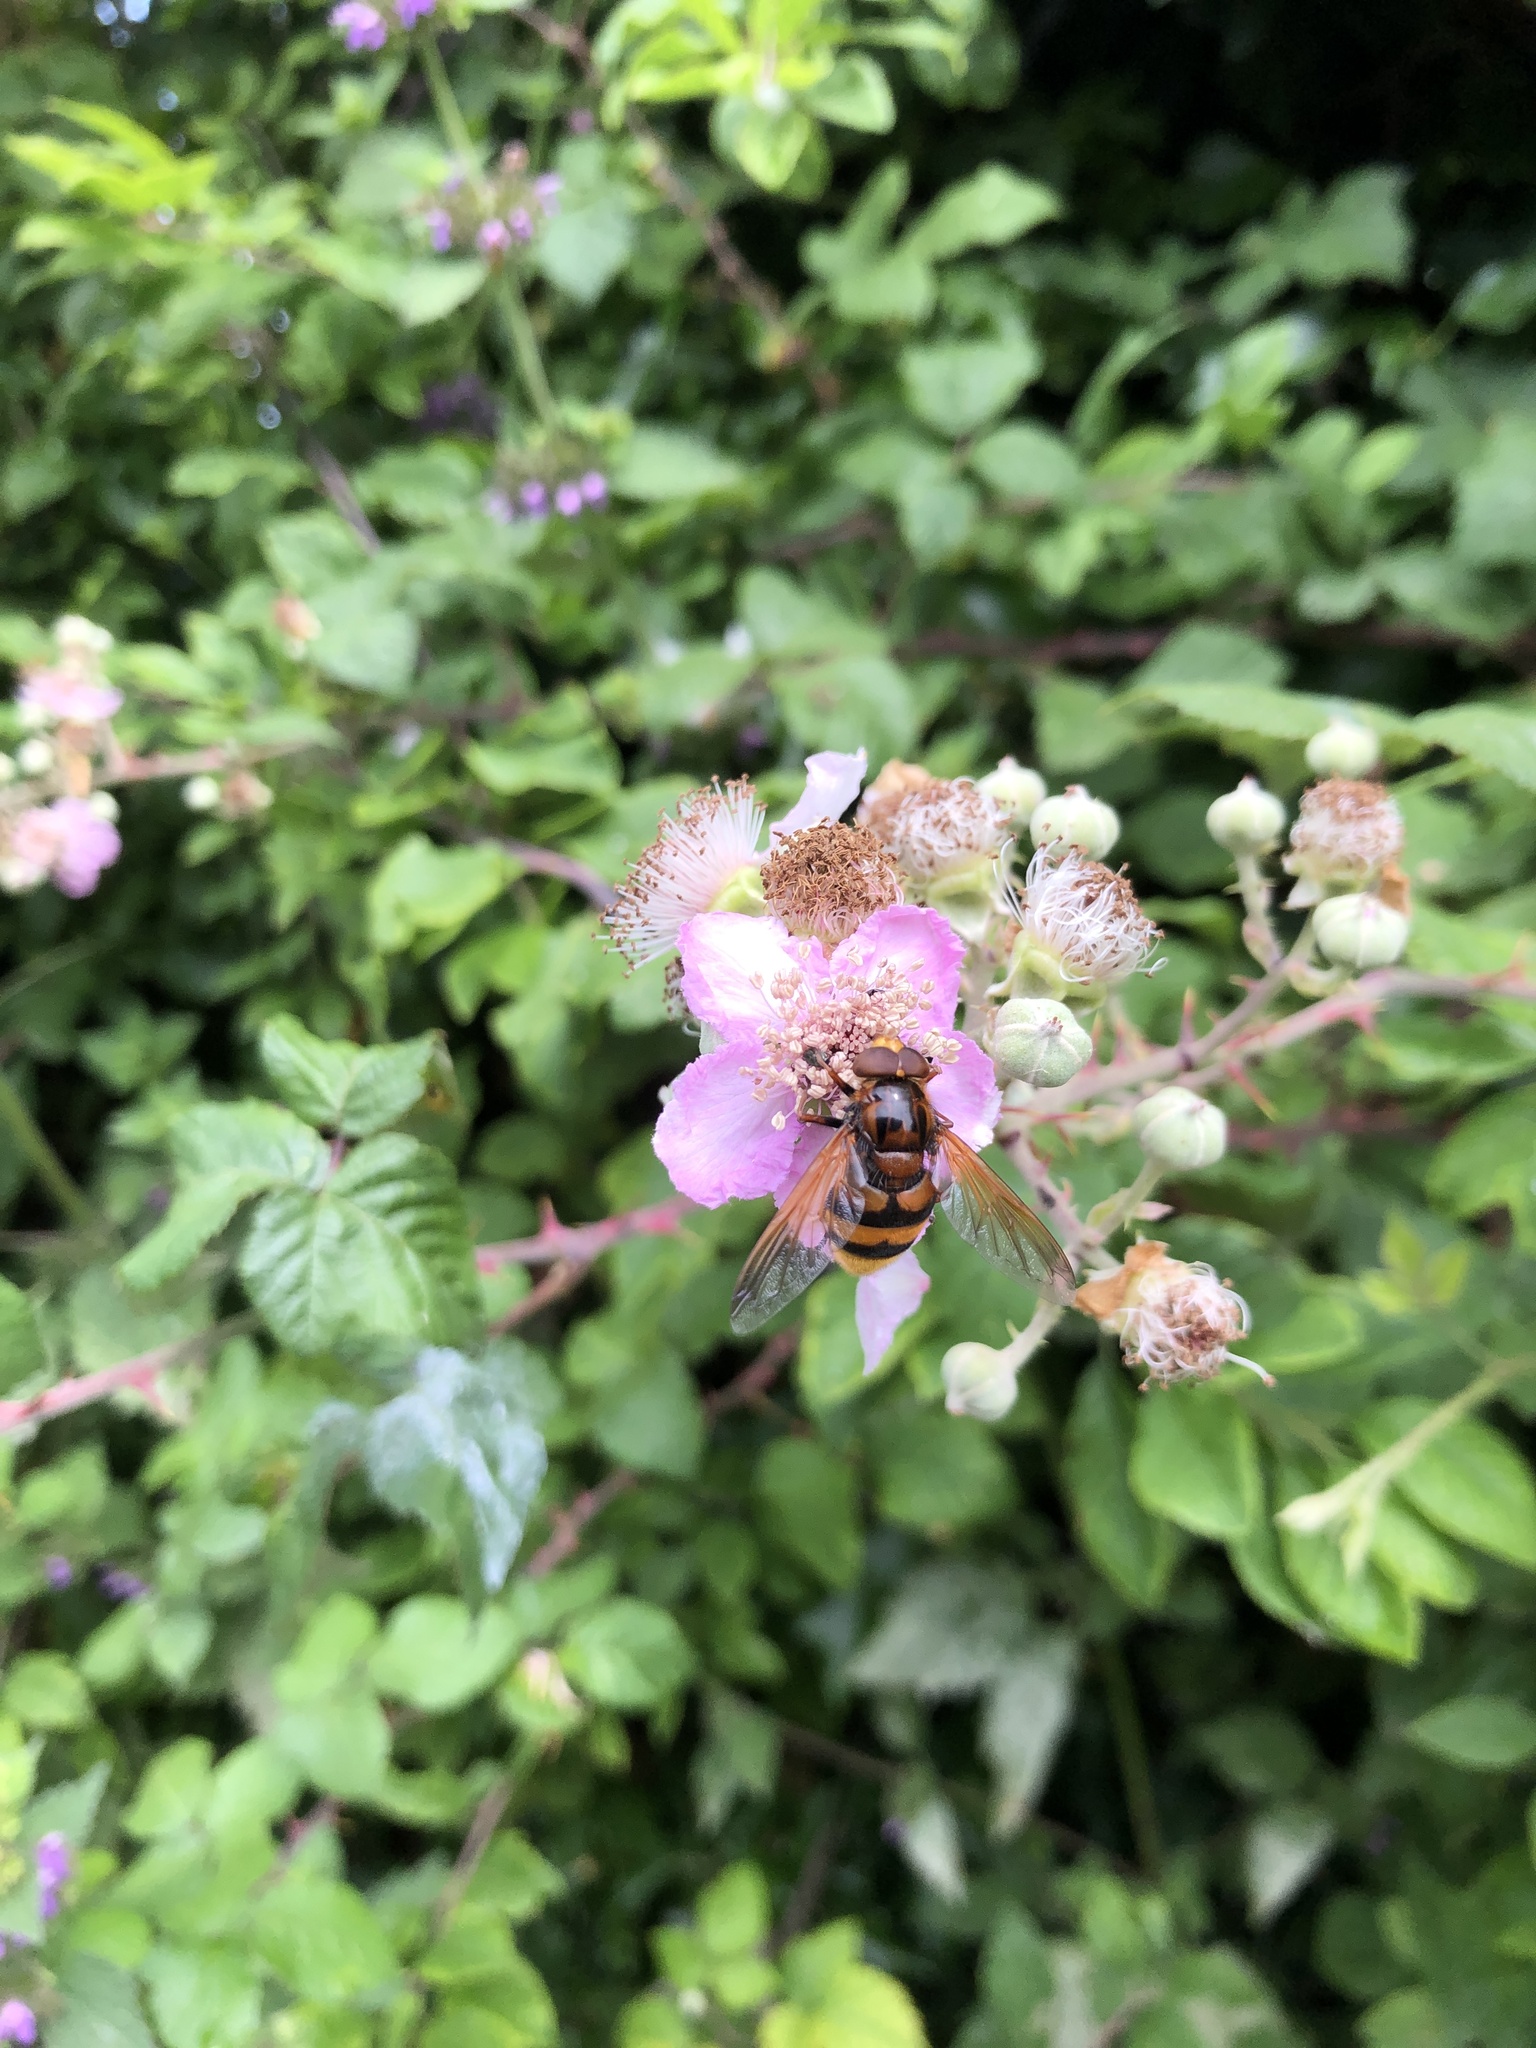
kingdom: Animalia
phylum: Arthropoda
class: Insecta
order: Diptera
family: Syrphidae
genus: Volucella
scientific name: Volucella zonaria
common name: Hornet hoverfly
